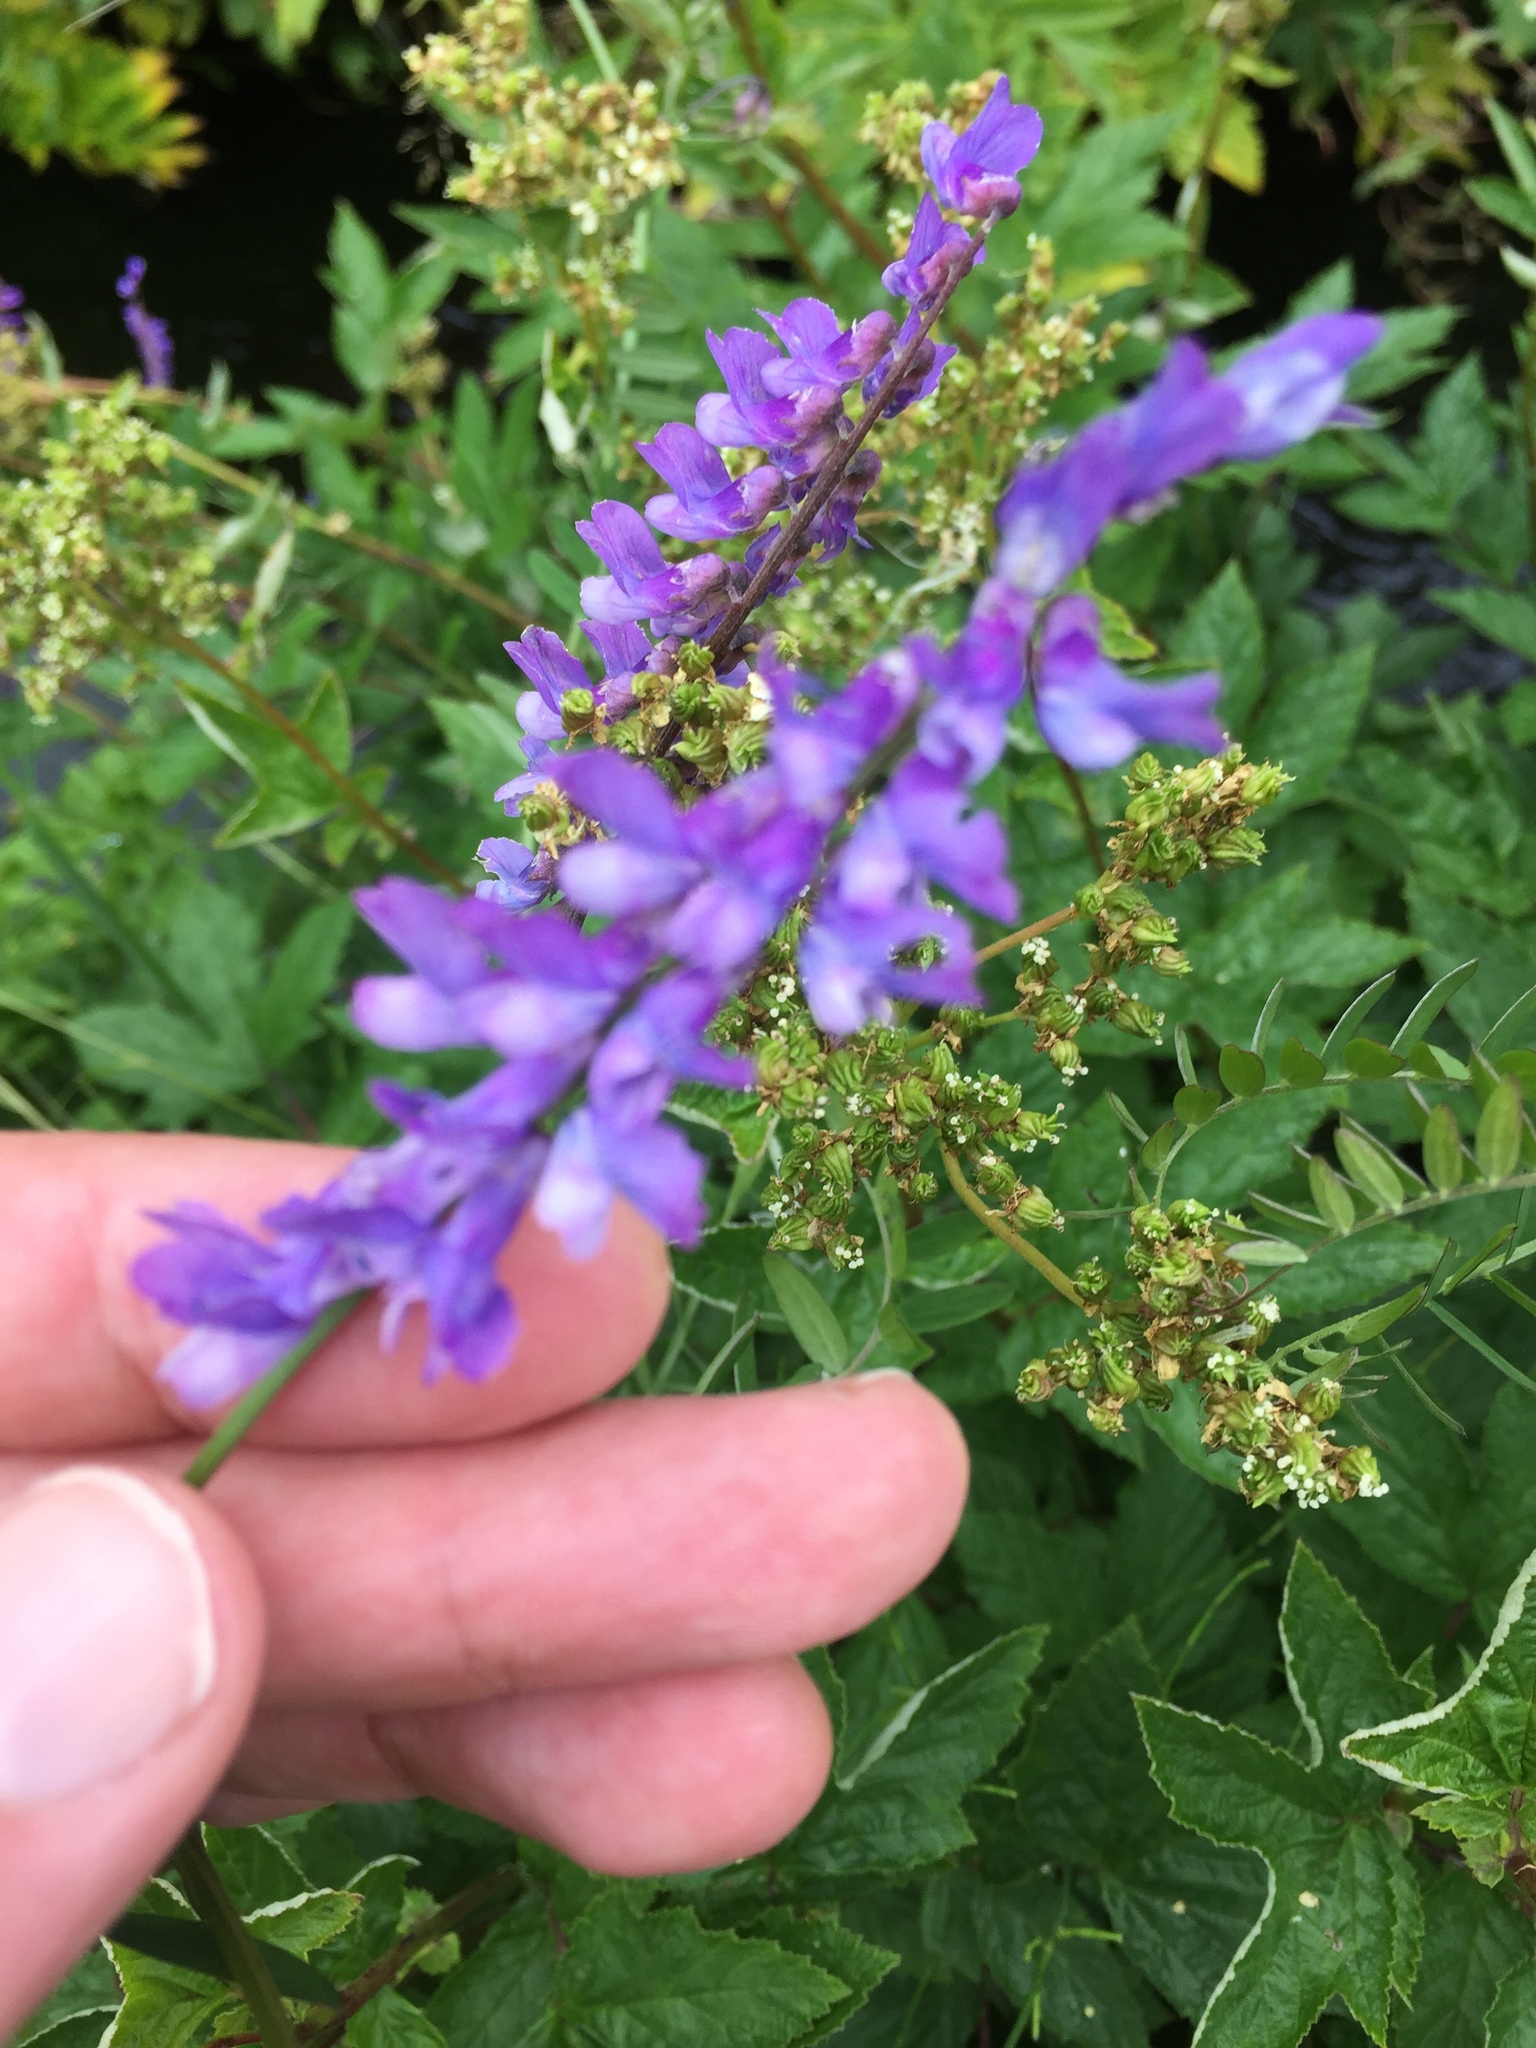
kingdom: Plantae
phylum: Tracheophyta
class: Magnoliopsida
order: Fabales
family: Fabaceae
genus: Vicia
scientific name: Vicia cracca
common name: Bird vetch
